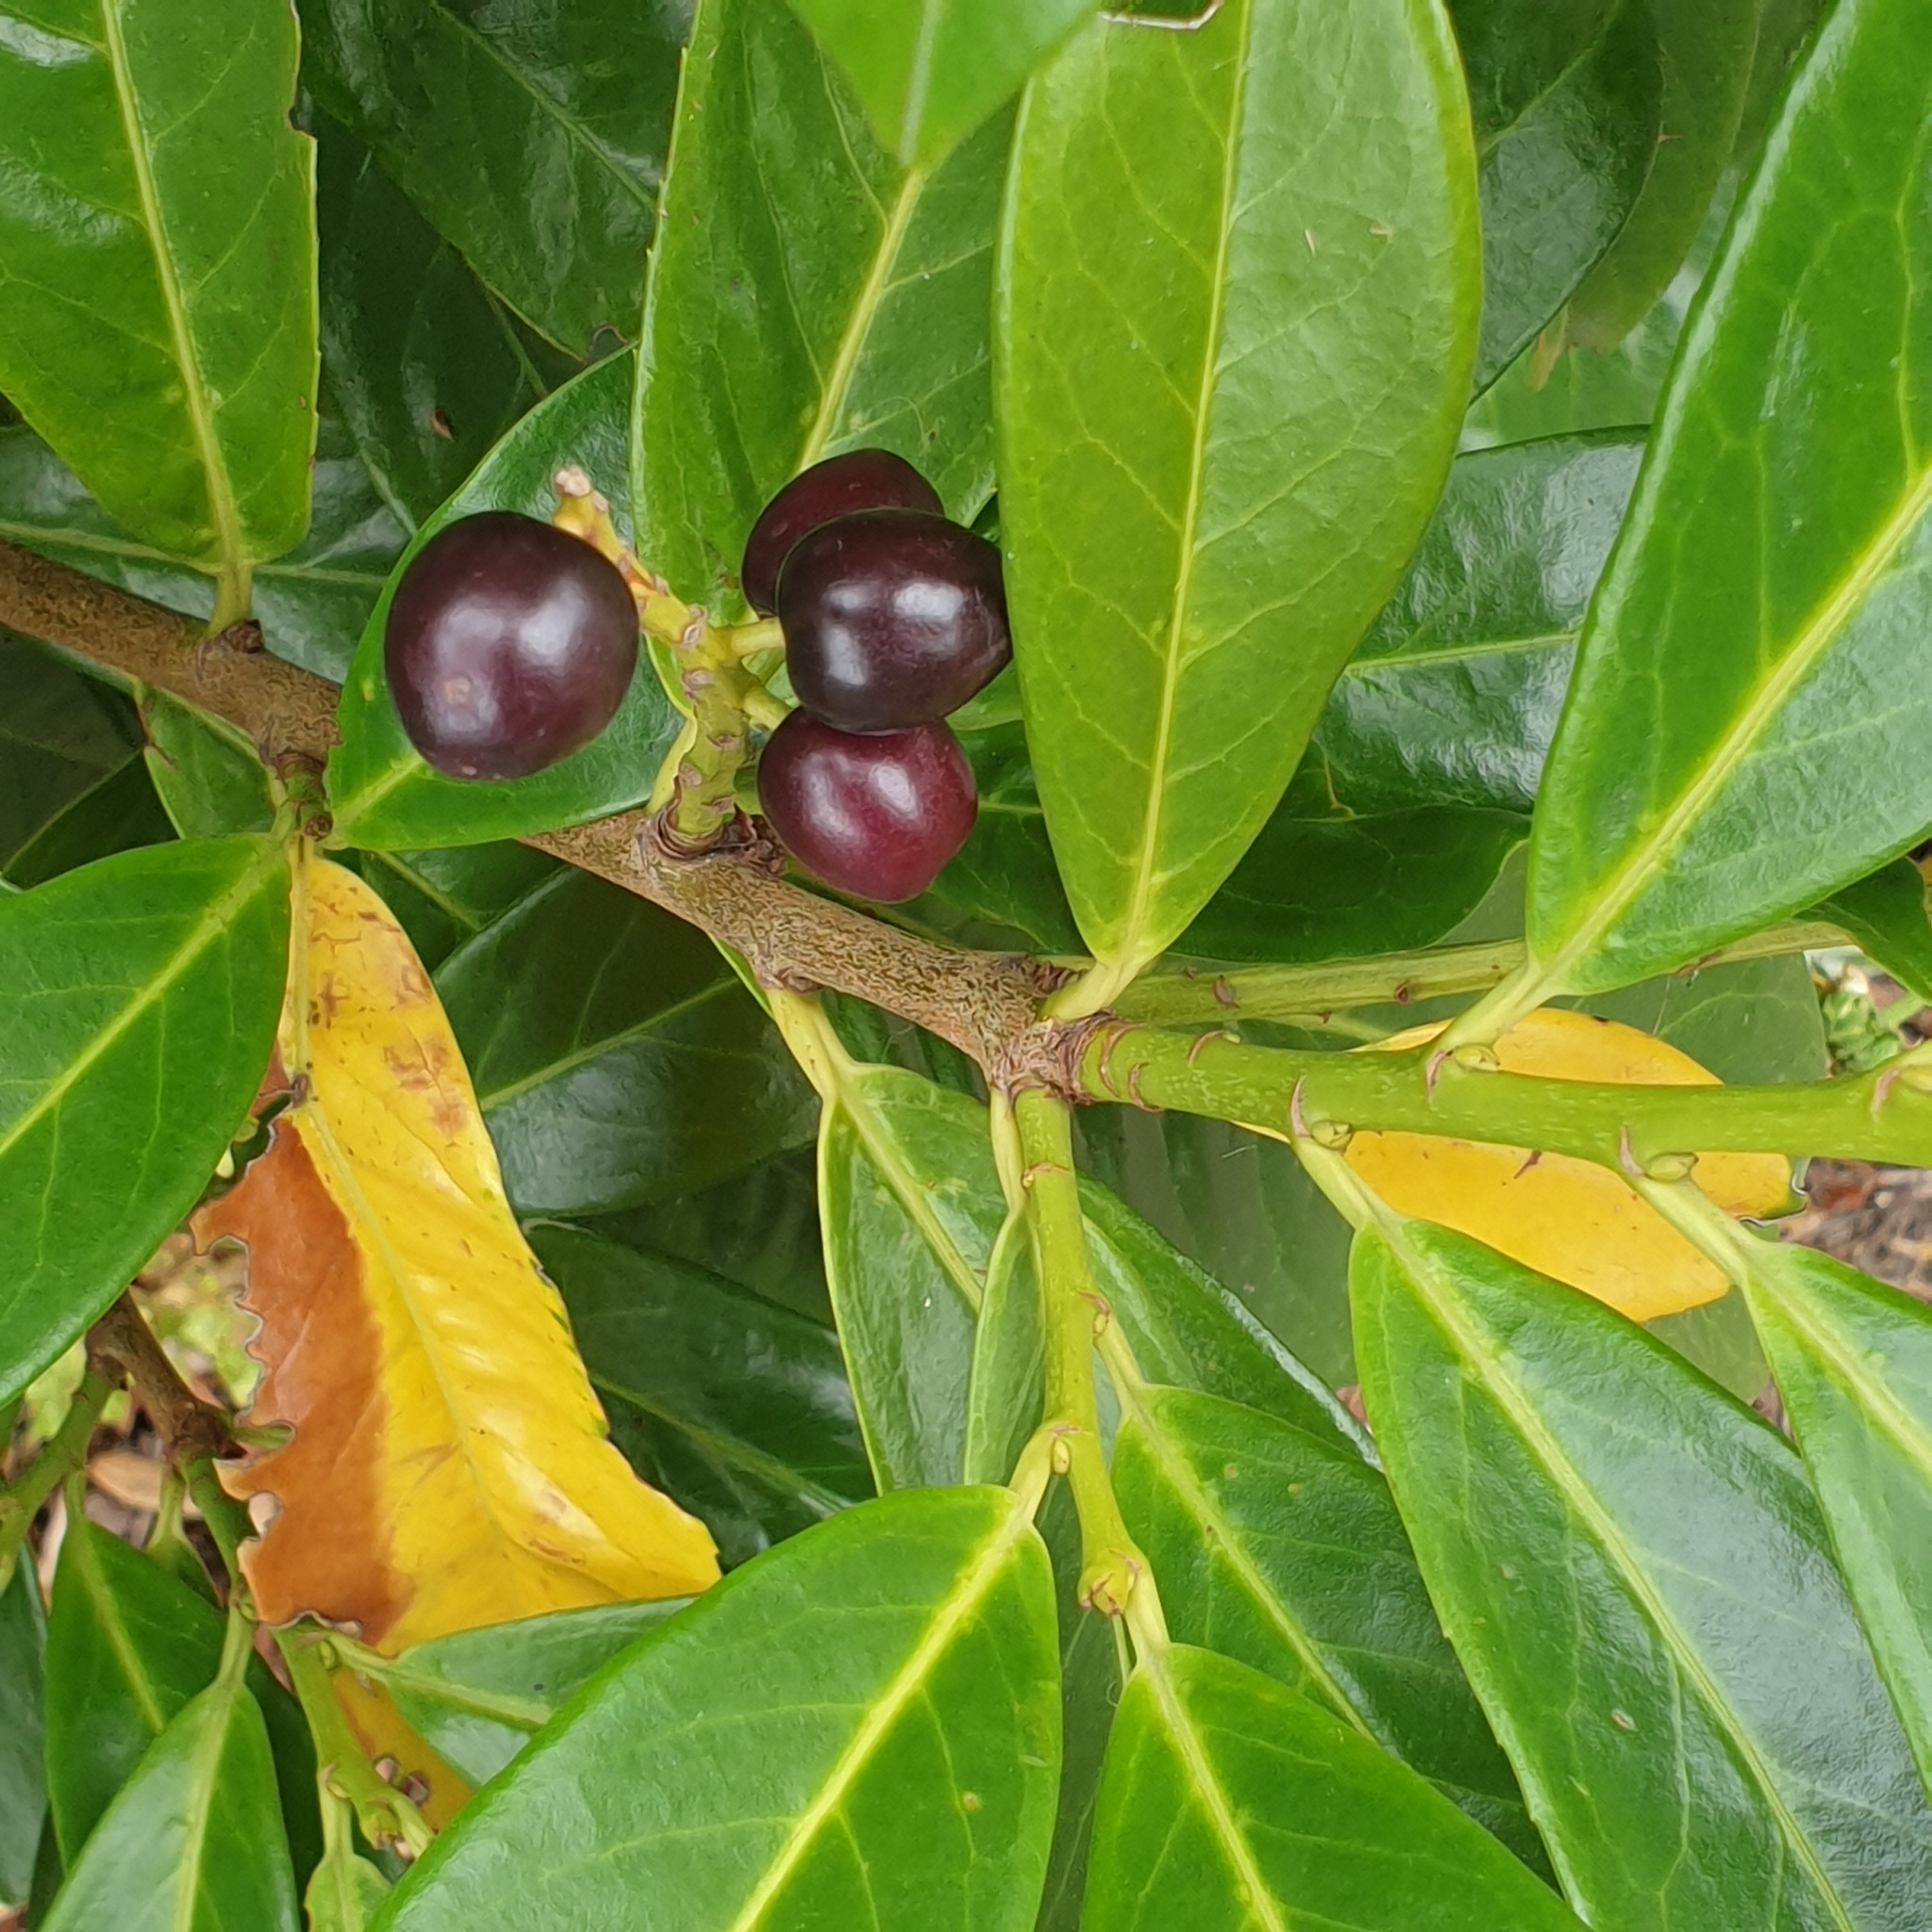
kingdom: Plantae
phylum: Tracheophyta
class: Magnoliopsida
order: Rosales
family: Rosaceae
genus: Prunus
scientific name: Prunus laurocerasus
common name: Cherry laurel
